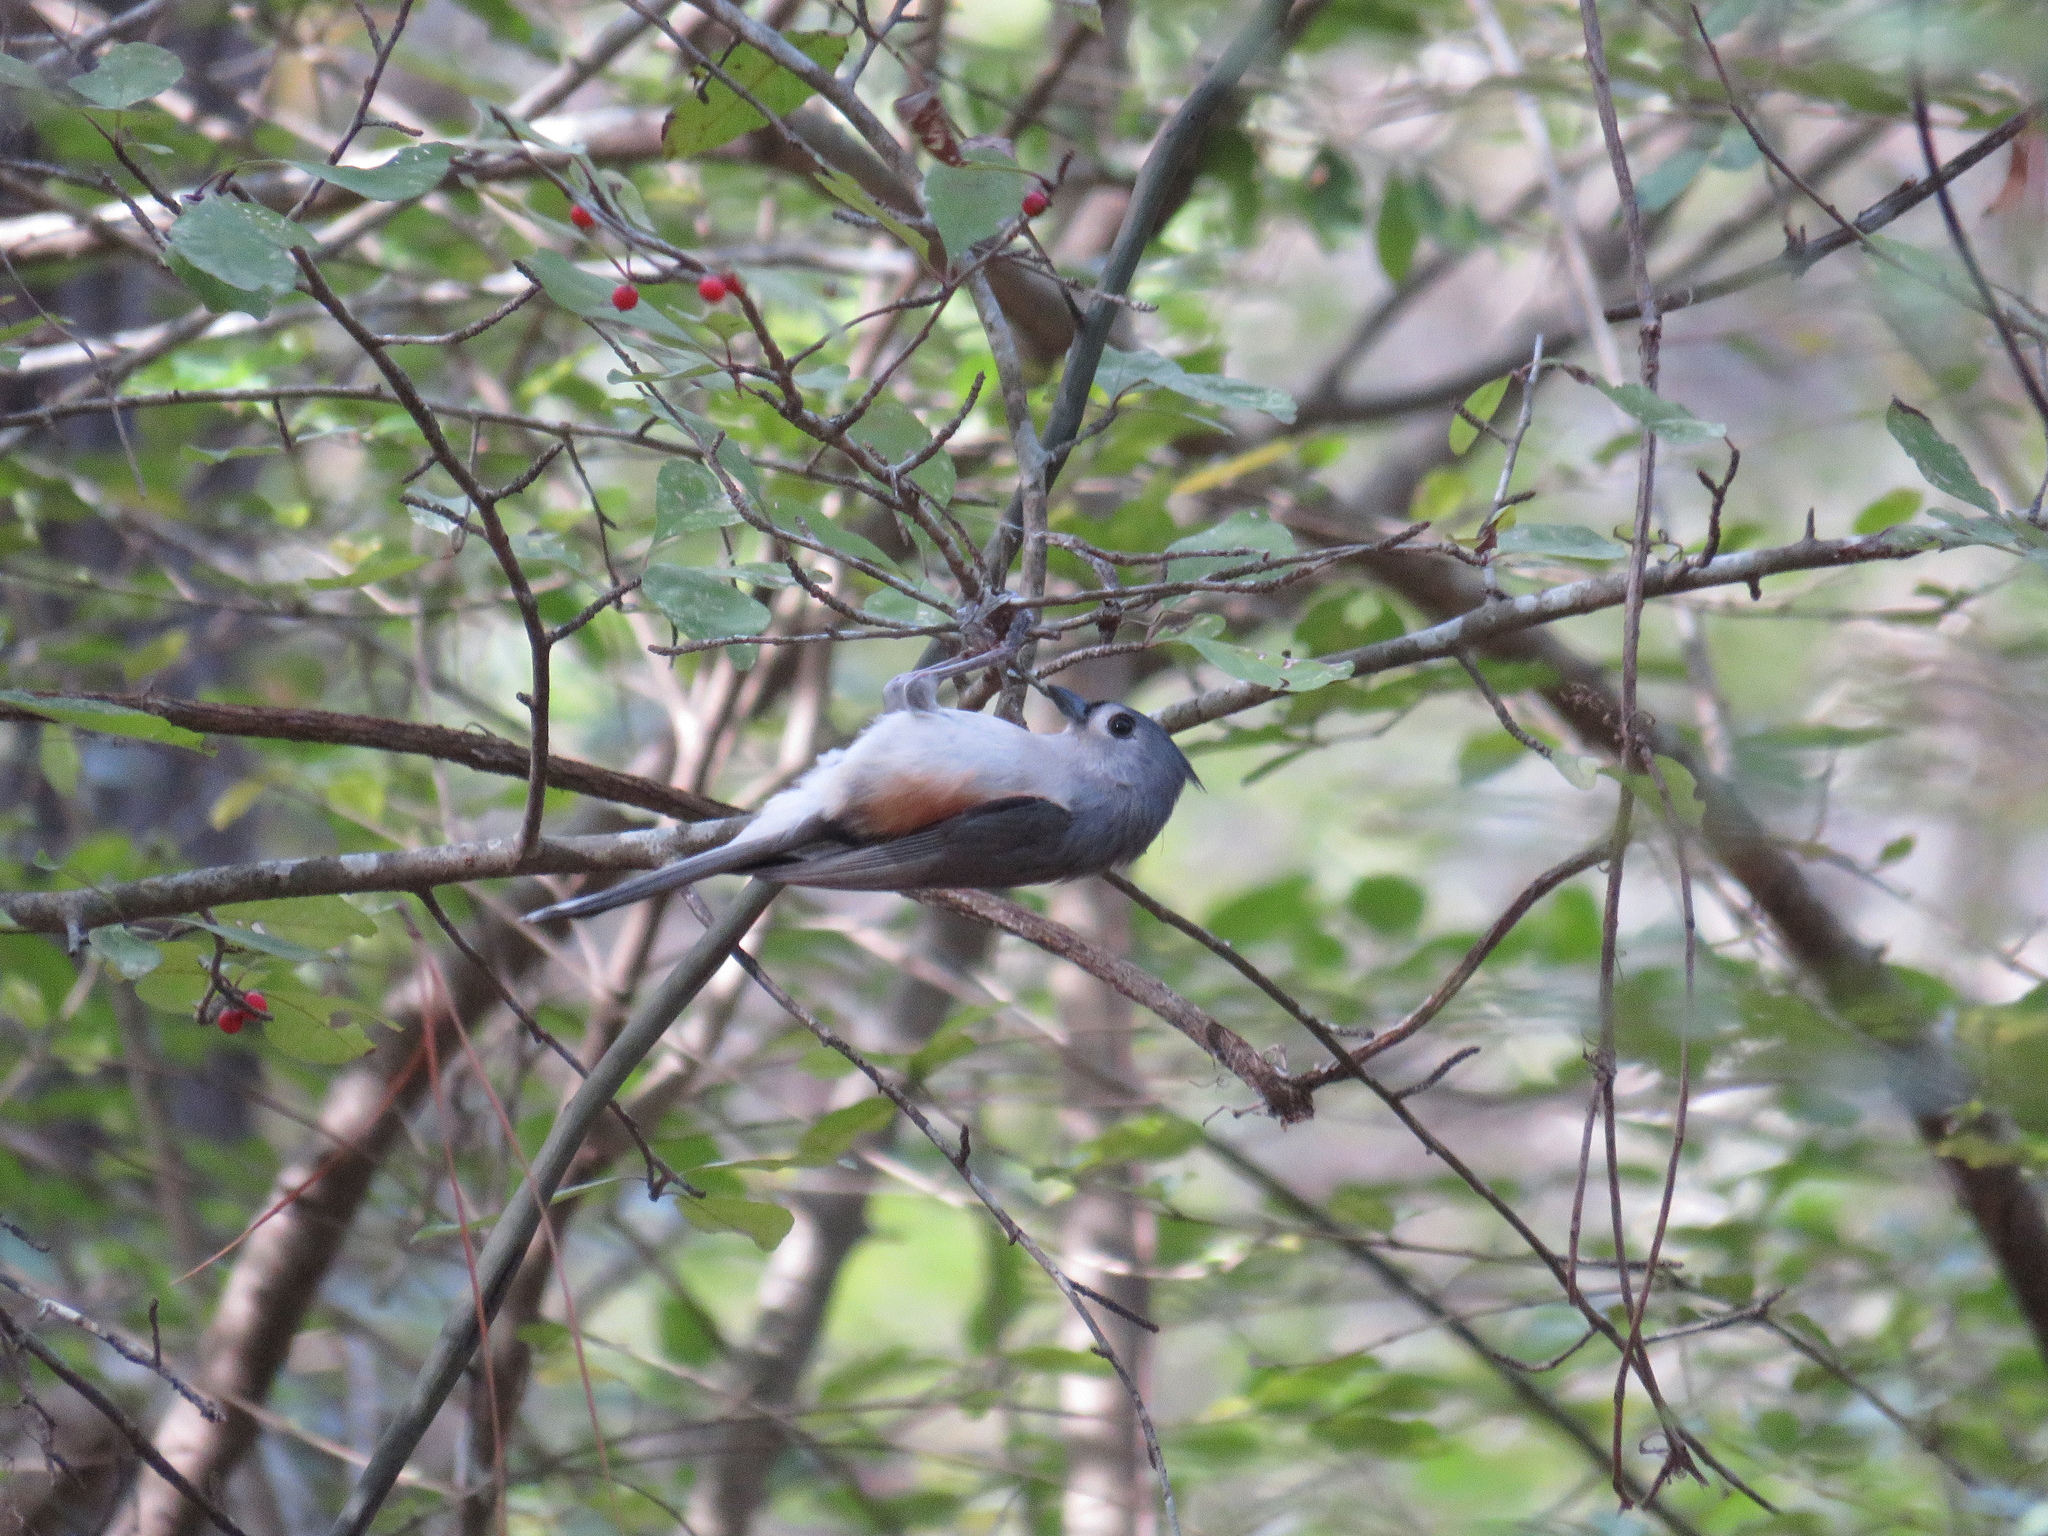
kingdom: Animalia
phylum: Chordata
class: Aves
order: Passeriformes
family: Paridae
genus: Baeolophus
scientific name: Baeolophus bicolor
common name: Tufted titmouse
